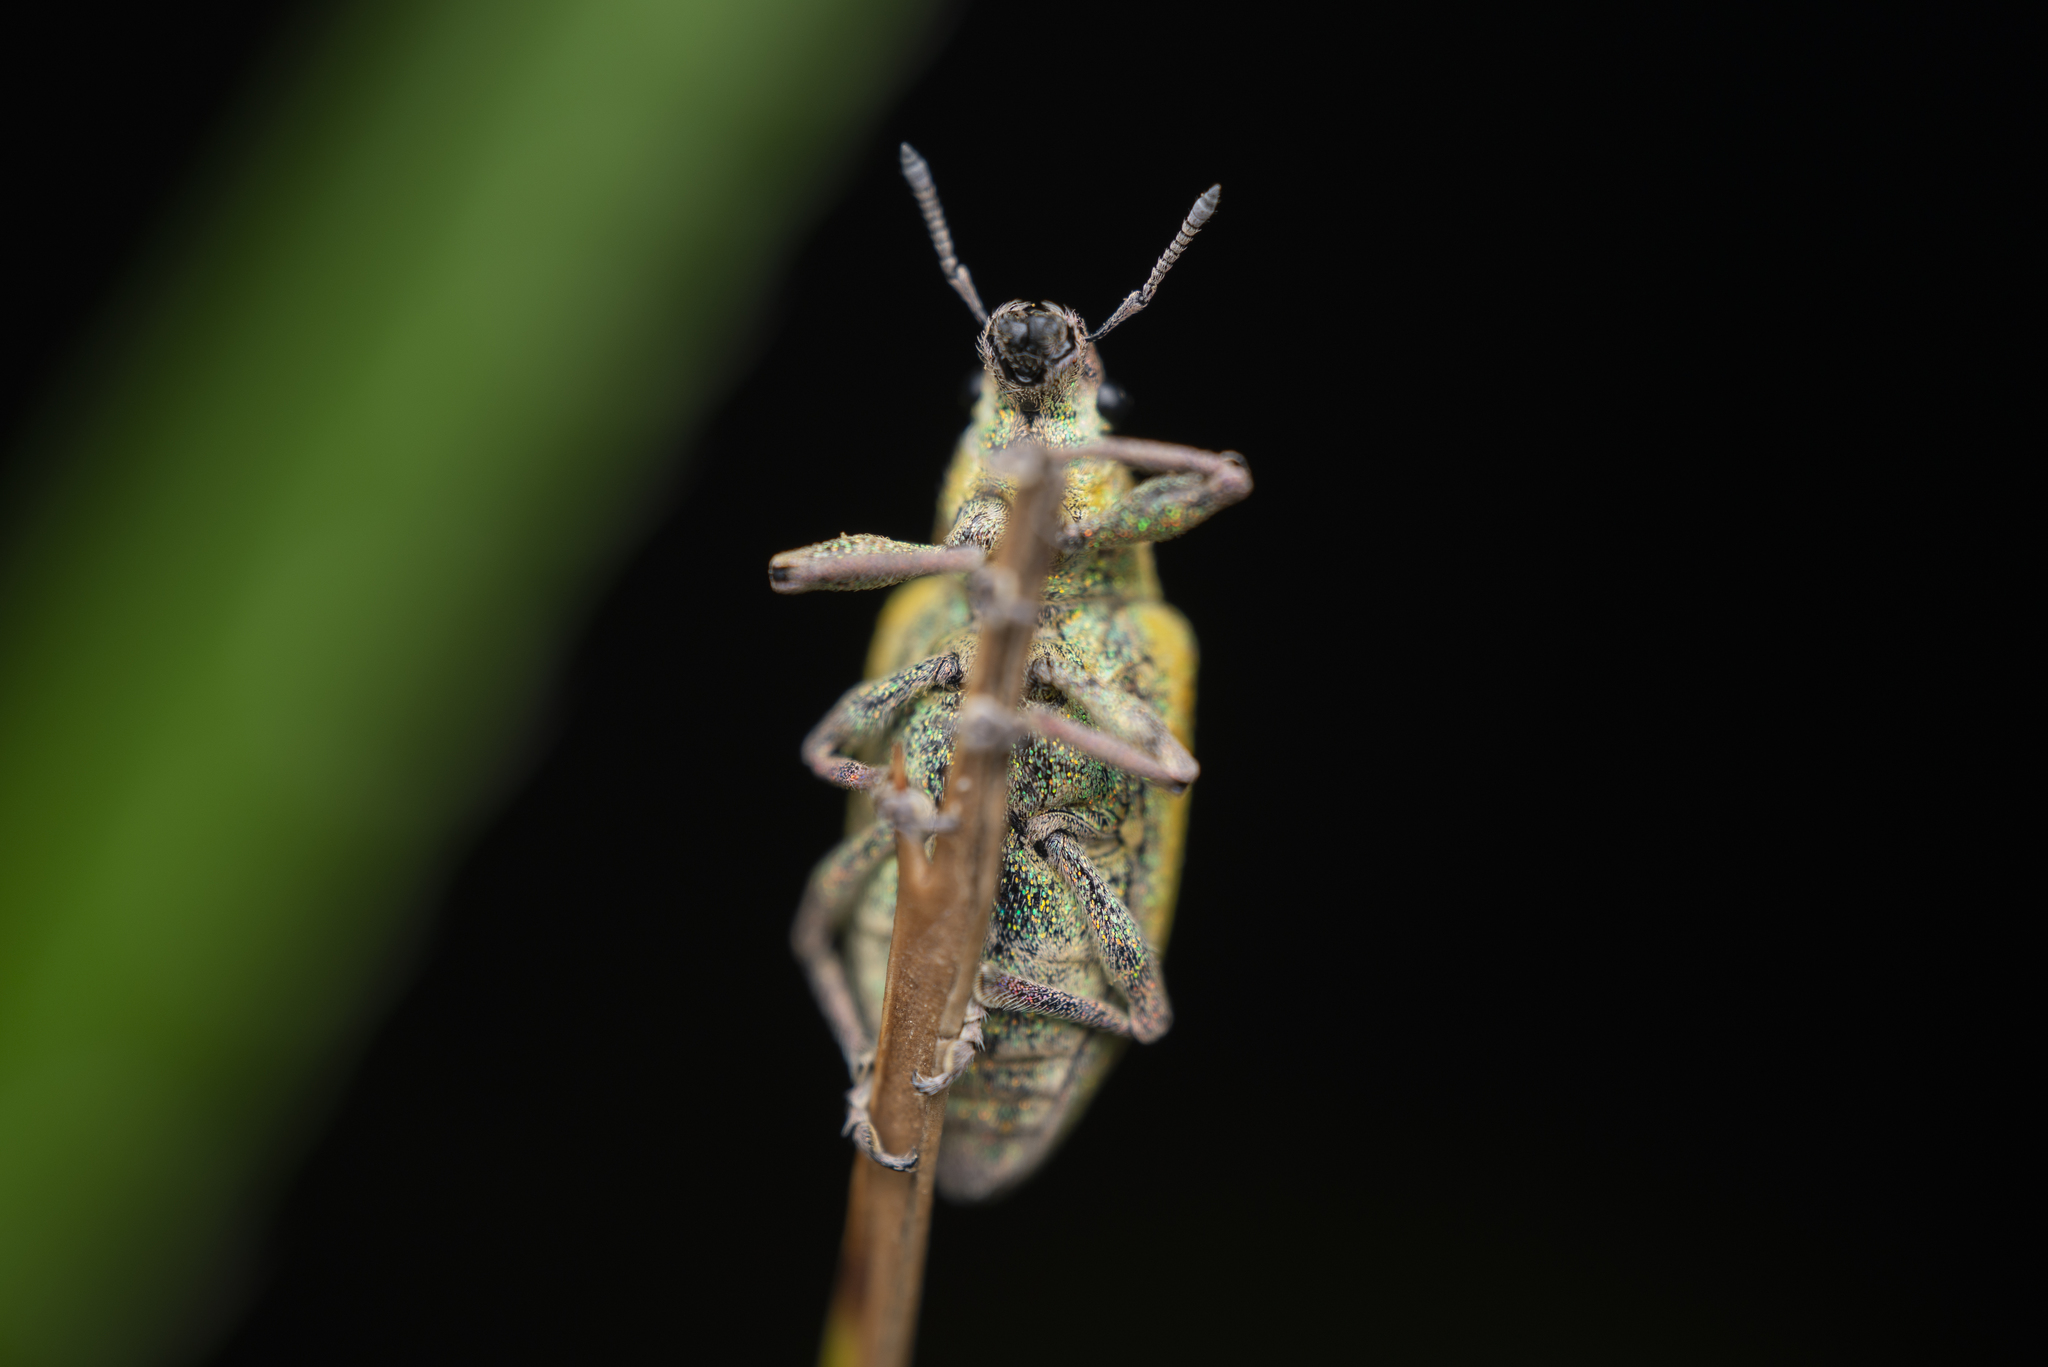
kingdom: Animalia
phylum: Arthropoda
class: Insecta
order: Coleoptera
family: Curculionidae
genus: Hypomeces
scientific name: Hypomeces pulviger
